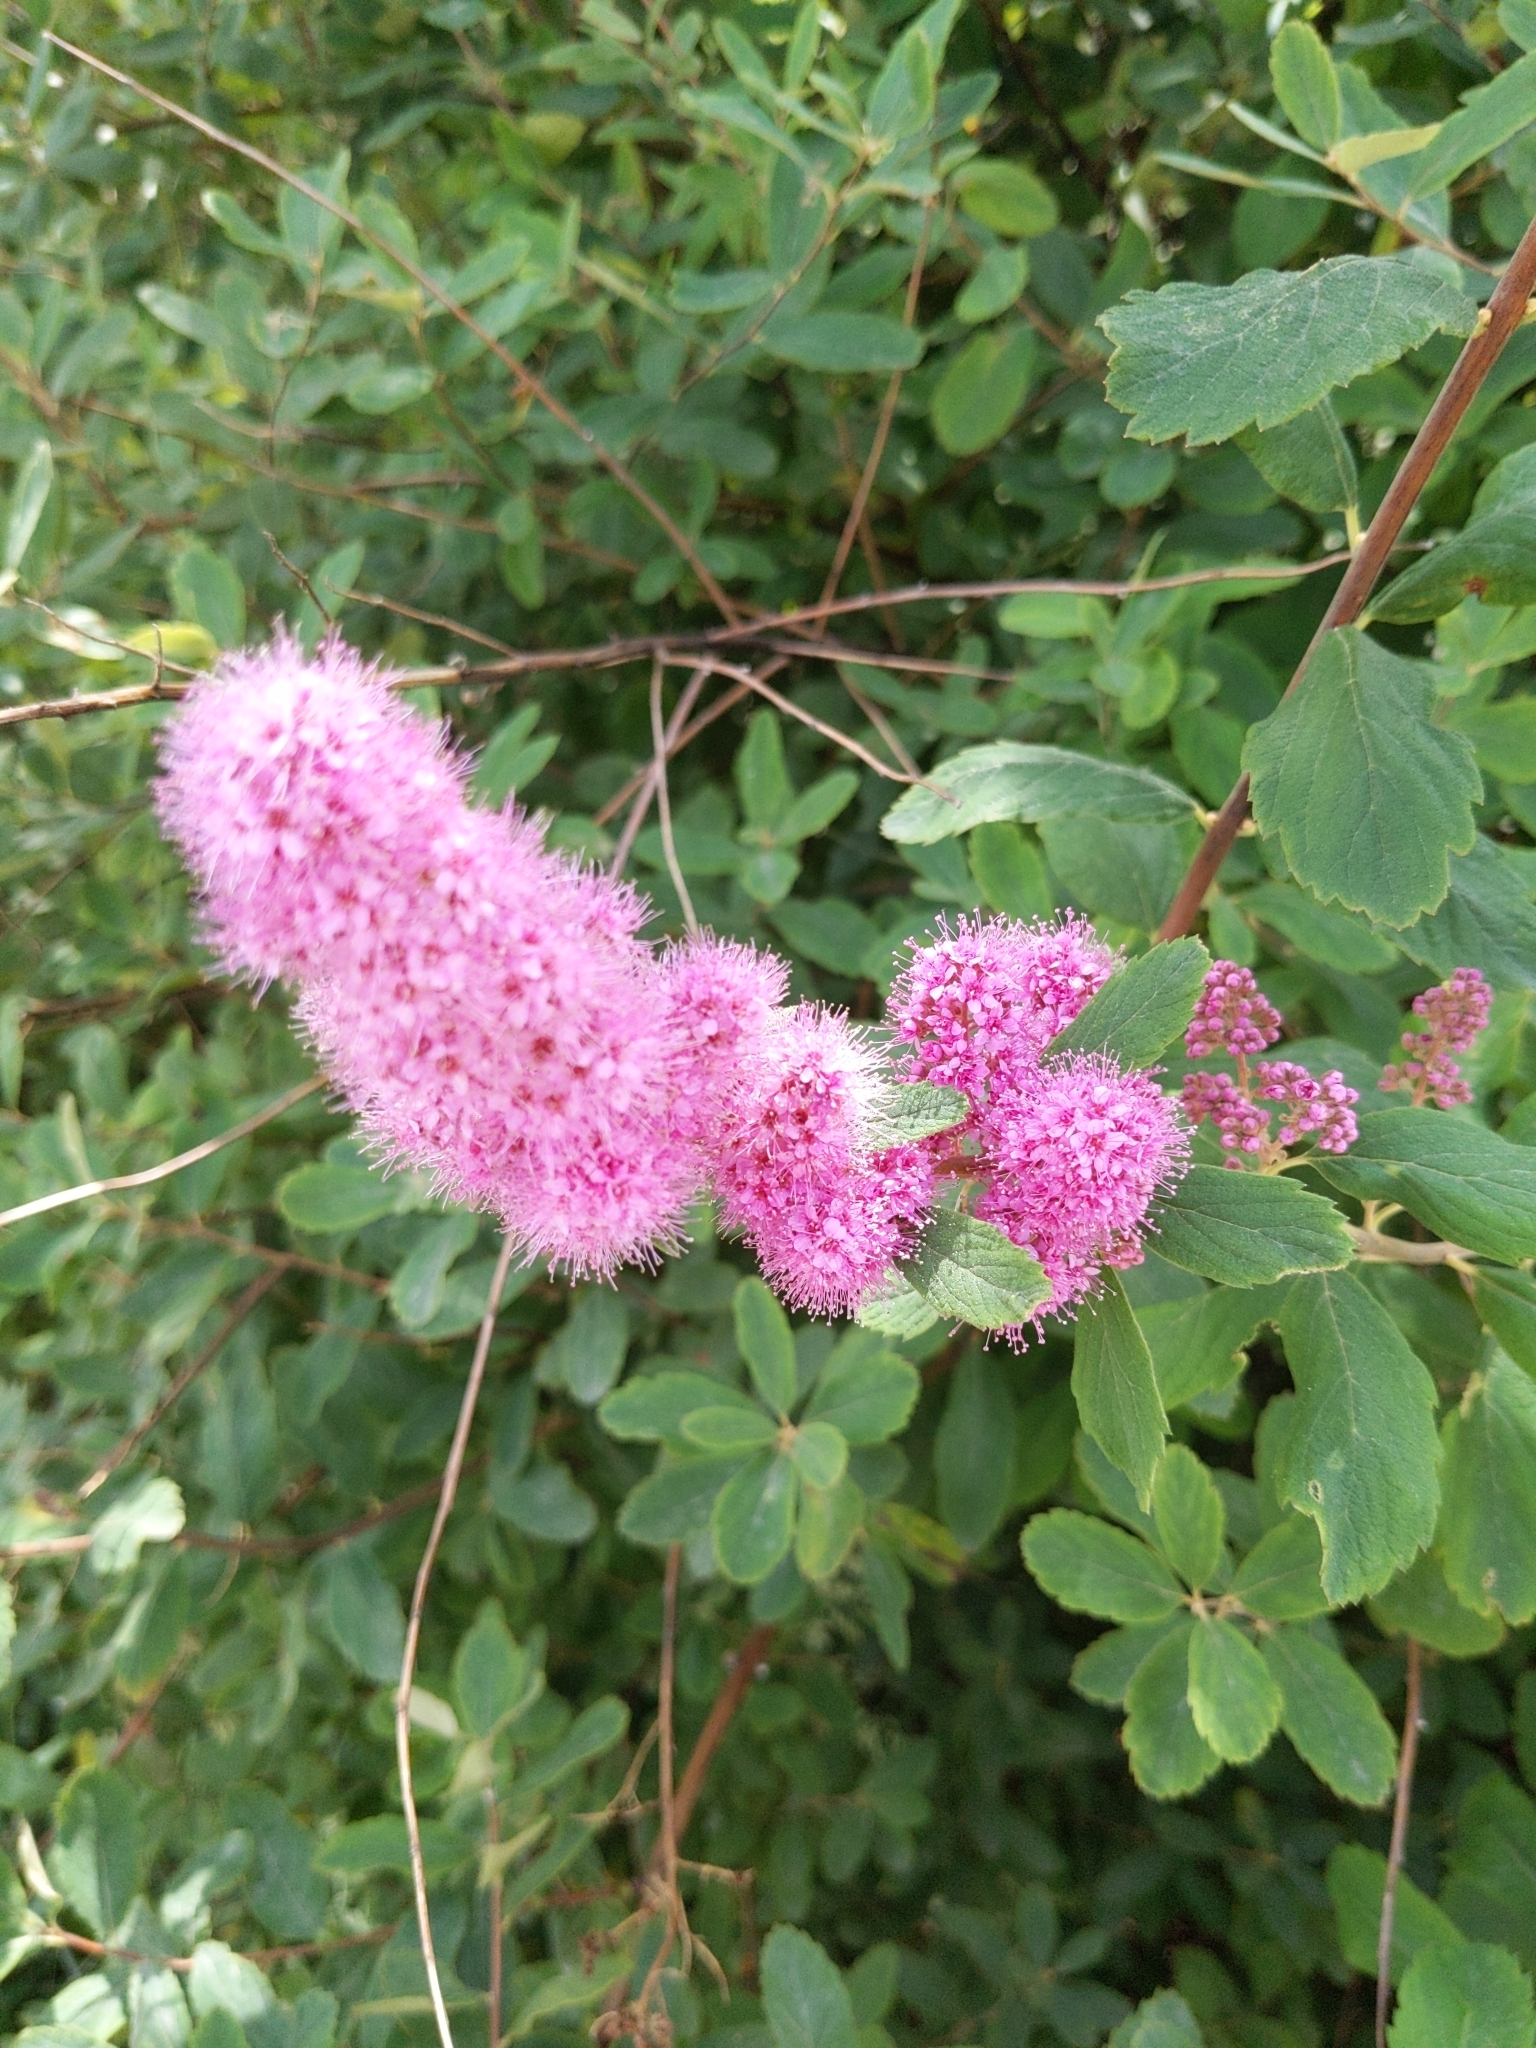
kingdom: Plantae
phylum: Tracheophyta
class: Magnoliopsida
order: Rosales
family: Rosaceae
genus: Spiraea
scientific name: Spiraea douglasii
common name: Steeplebush
